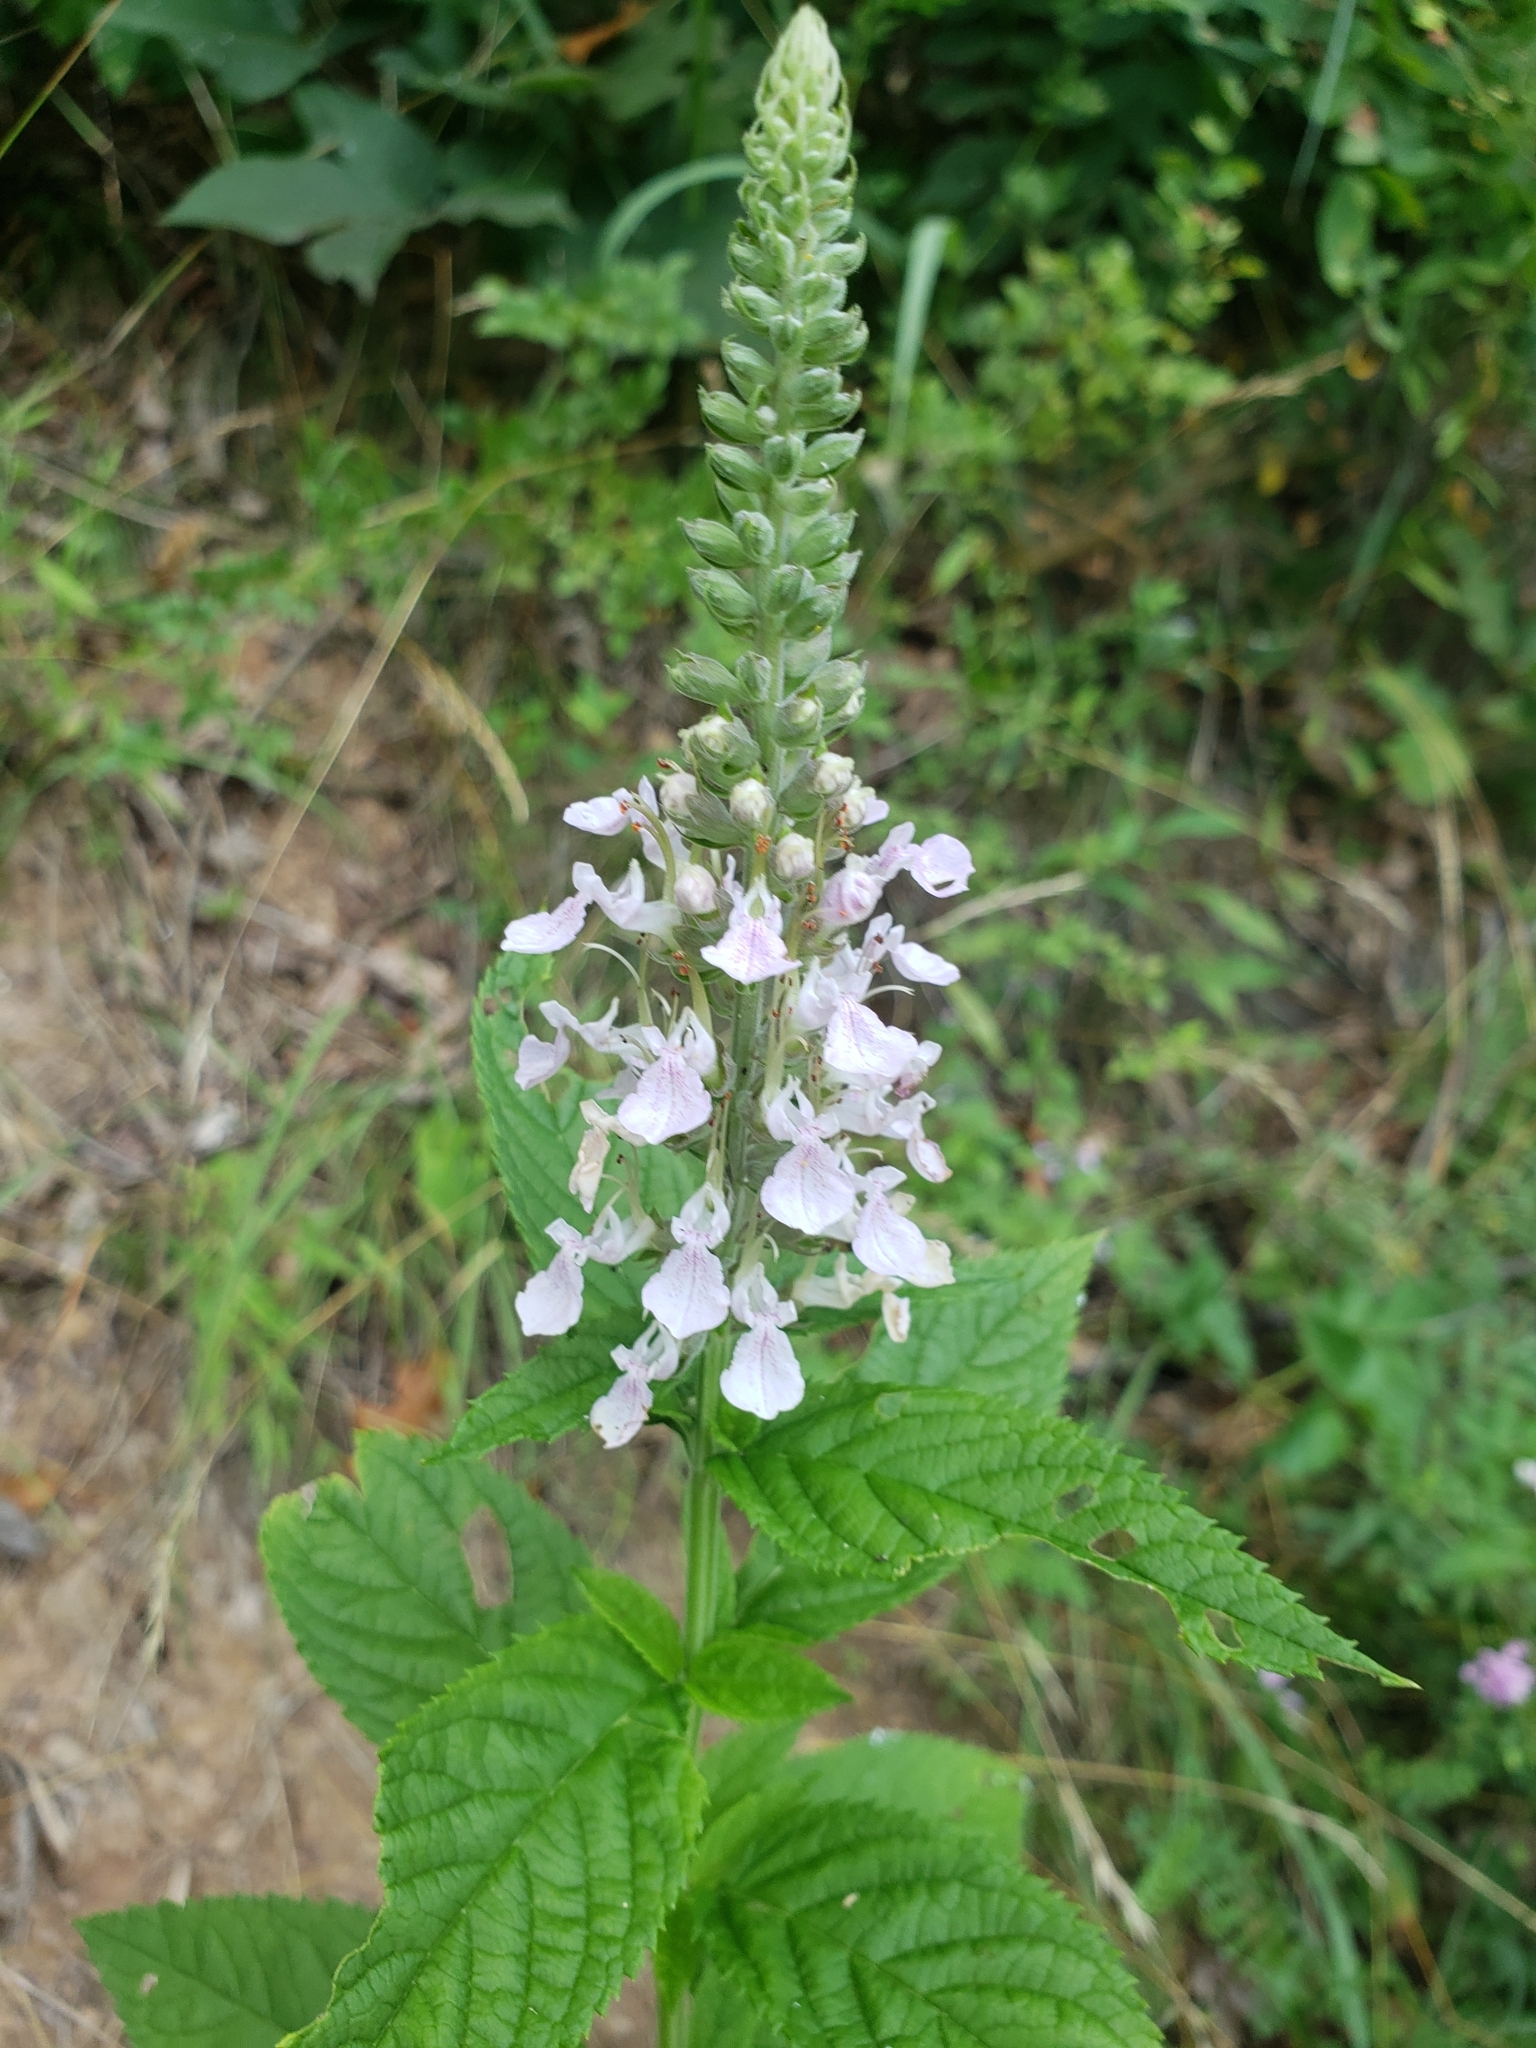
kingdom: Plantae
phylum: Tracheophyta
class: Magnoliopsida
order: Lamiales
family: Lamiaceae
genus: Teucrium
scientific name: Teucrium canadense
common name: American germander
